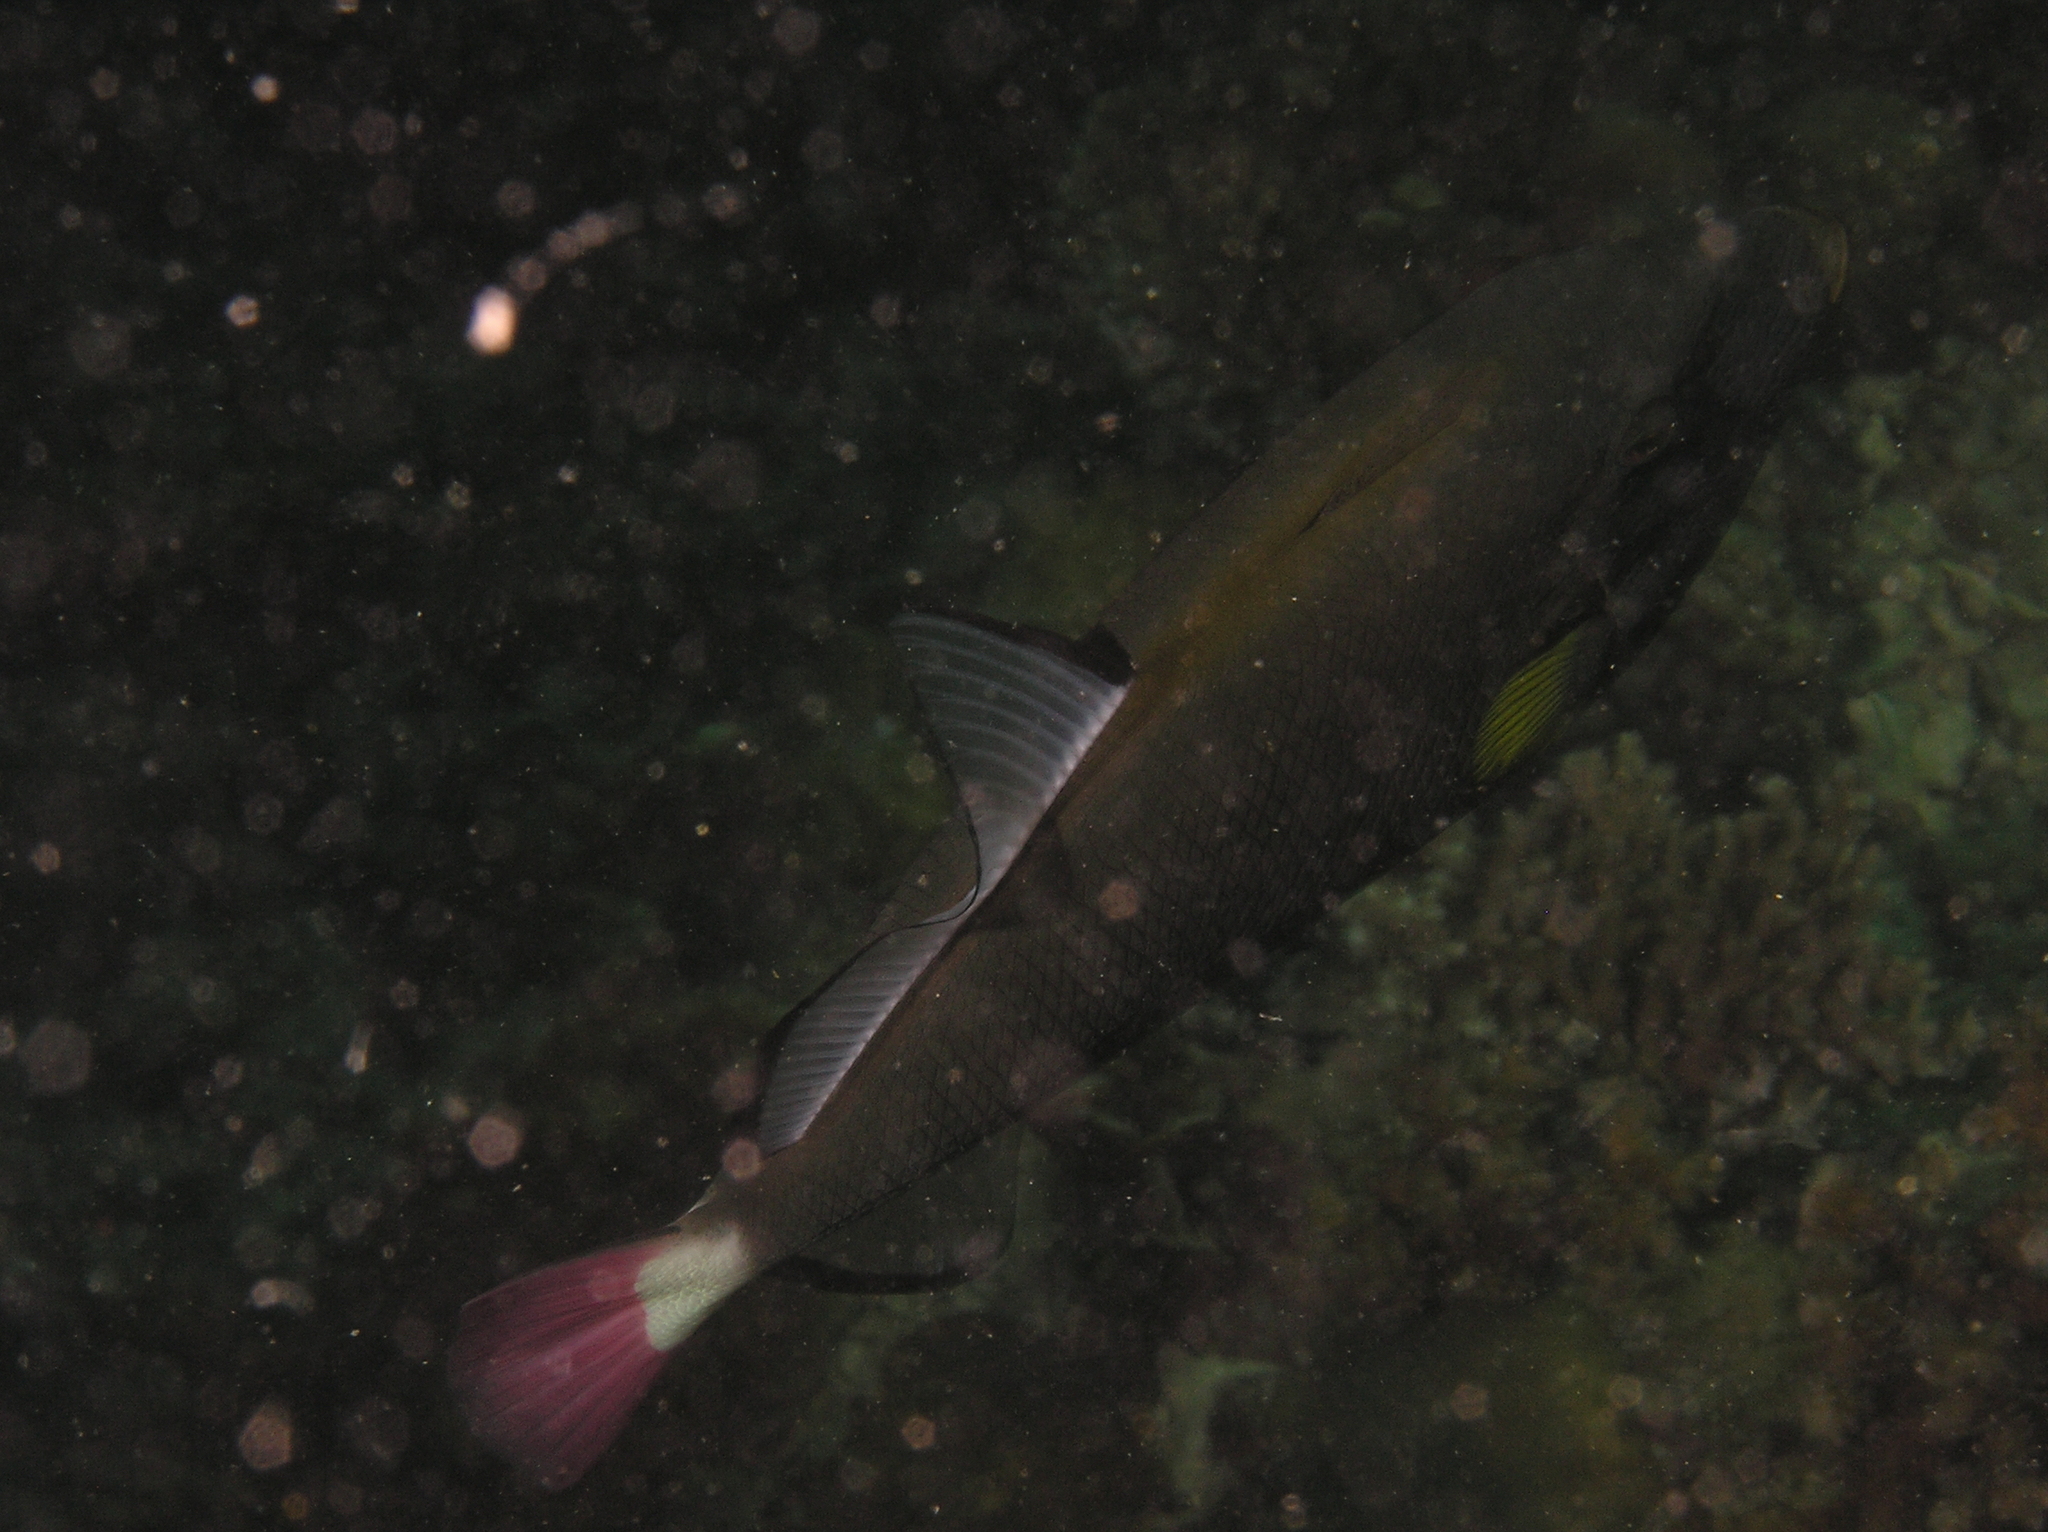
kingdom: Animalia
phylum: Chordata
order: Tetraodontiformes
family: Balistidae
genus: Melichthys
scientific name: Melichthys vidua
